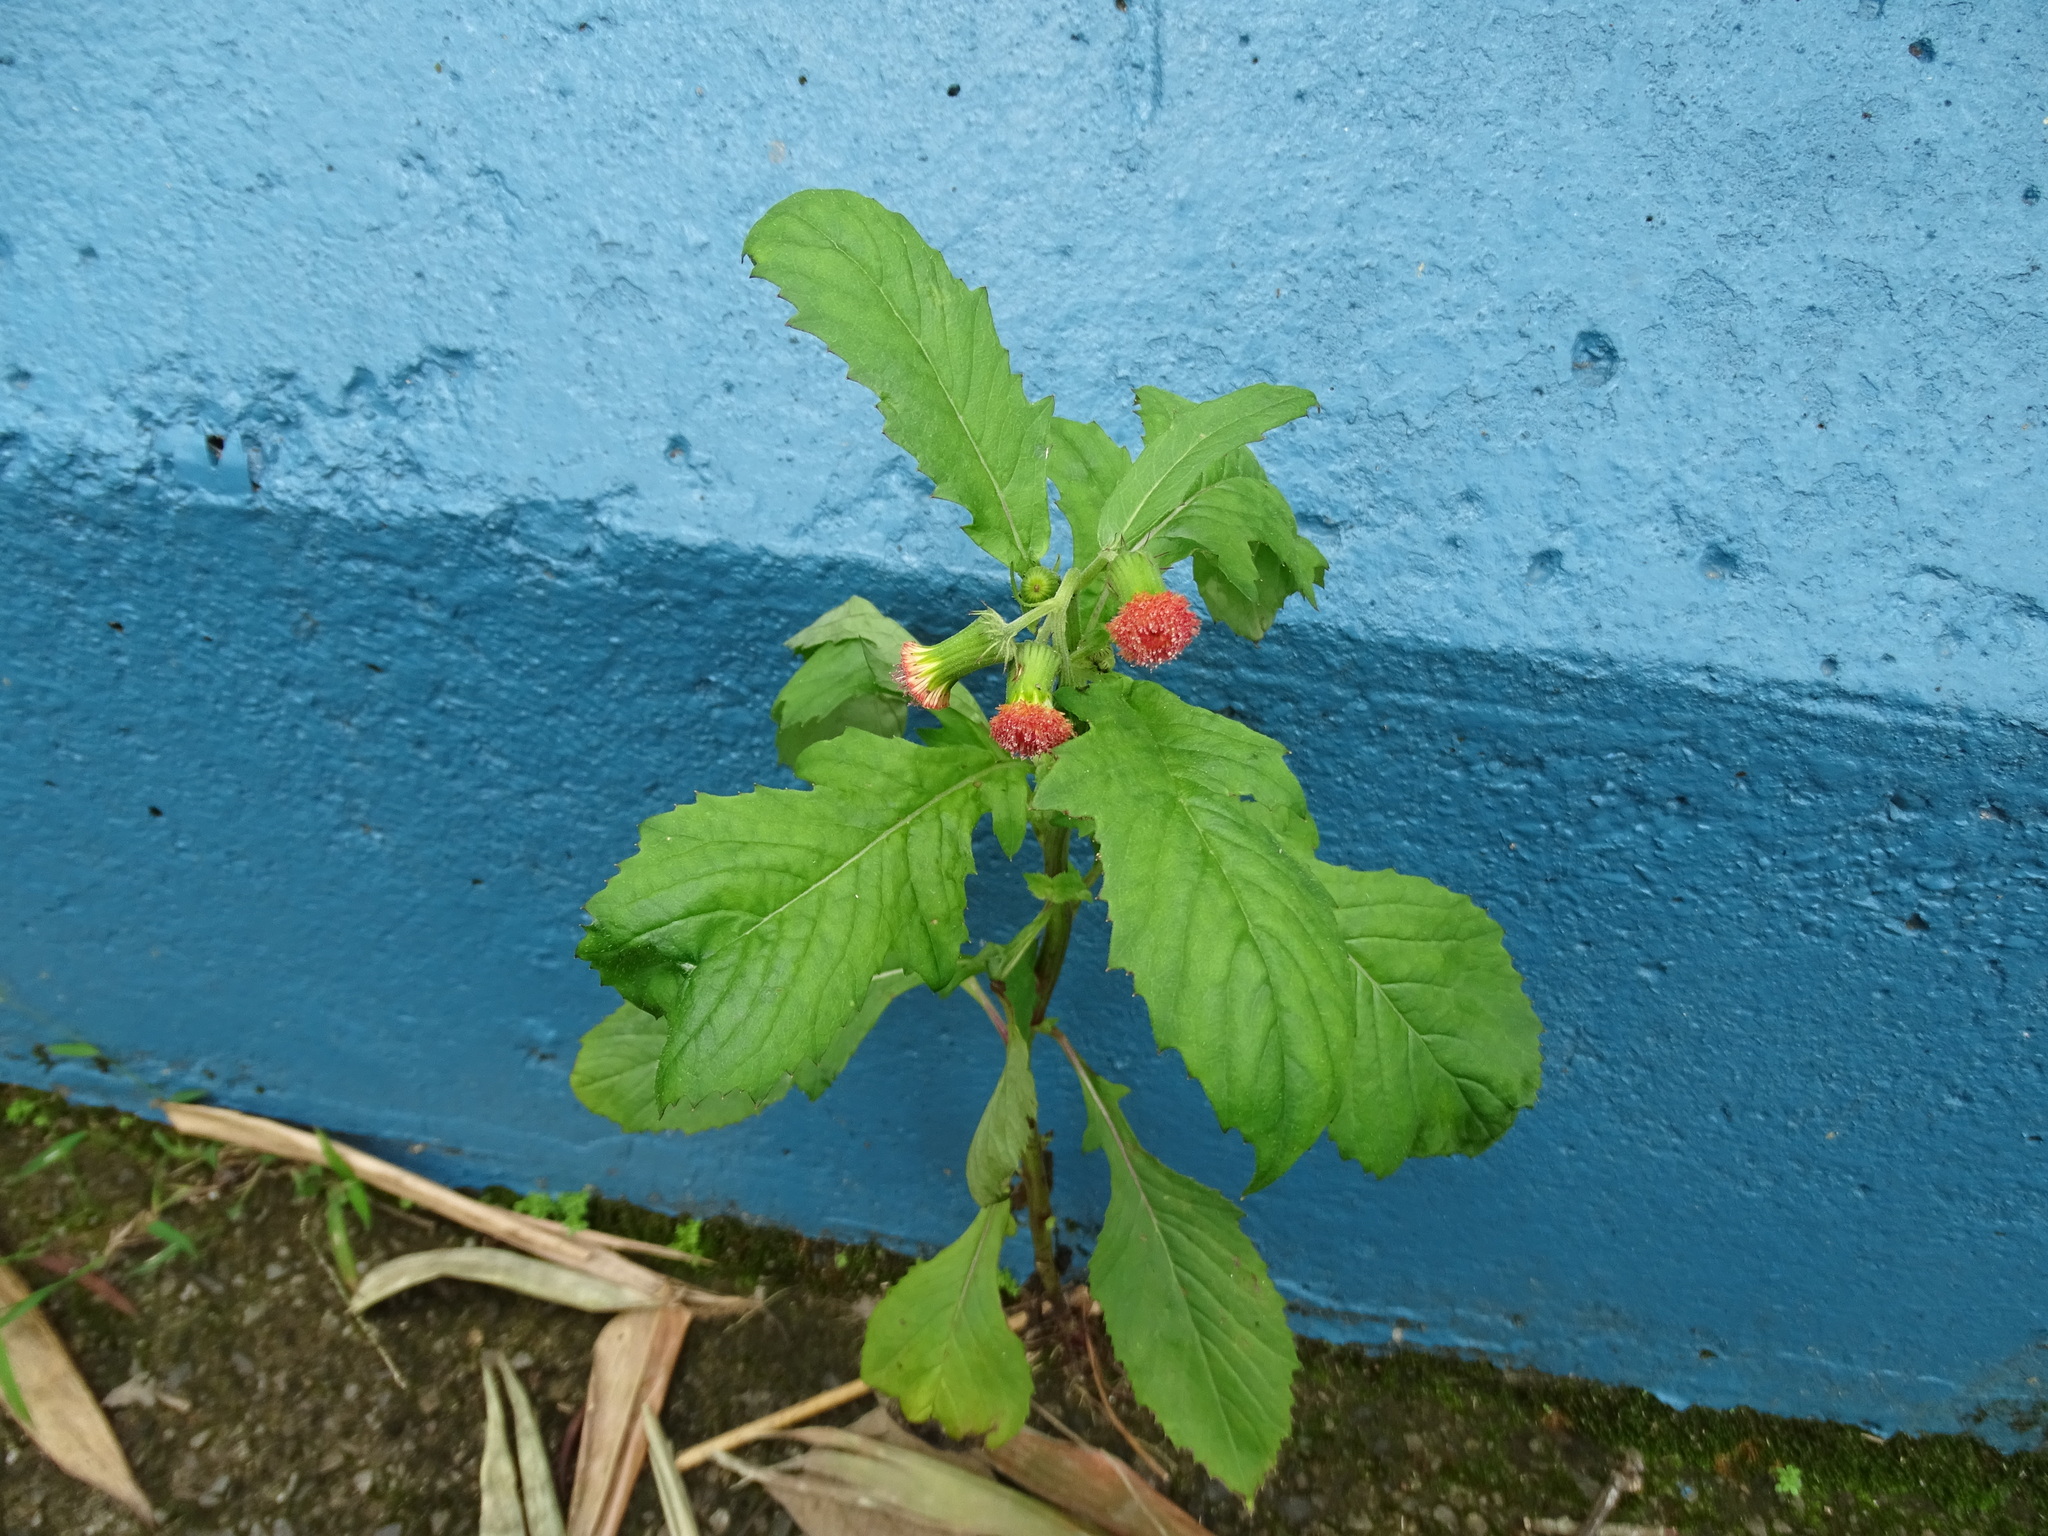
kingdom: Plantae
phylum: Tracheophyta
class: Magnoliopsida
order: Asterales
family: Asteraceae
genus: Crassocephalum
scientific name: Crassocephalum crepidioides
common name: Redflower ragleaf
